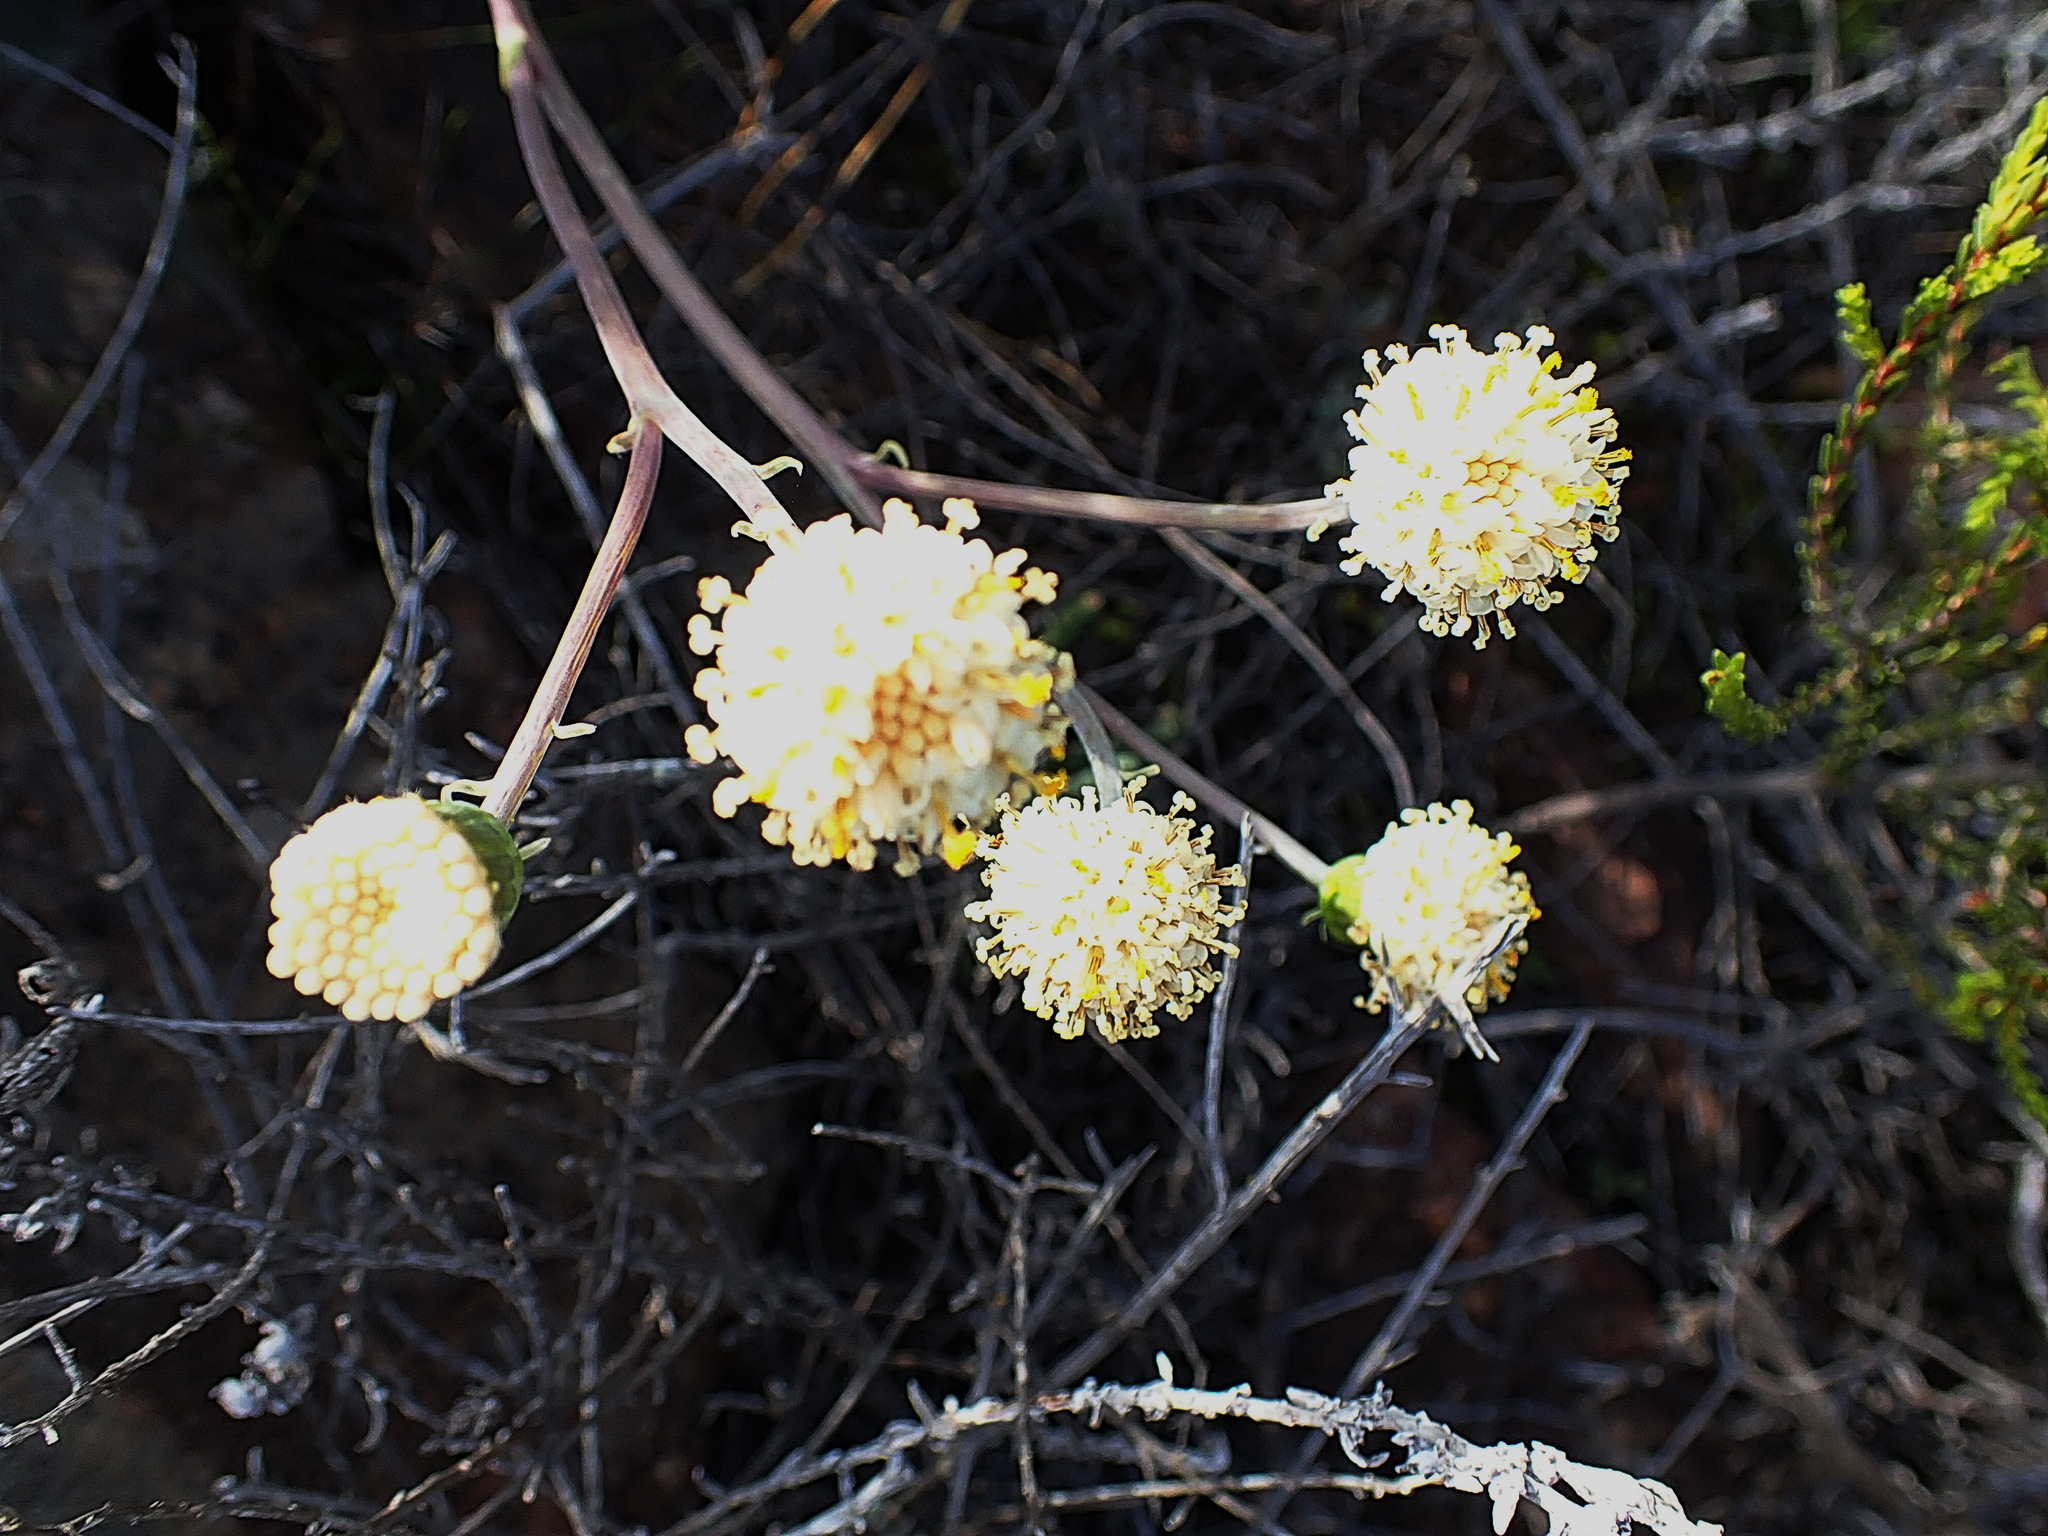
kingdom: Plantae
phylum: Tracheophyta
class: Magnoliopsida
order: Asterales
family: Asteraceae
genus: Curio
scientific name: Curio talinoides
